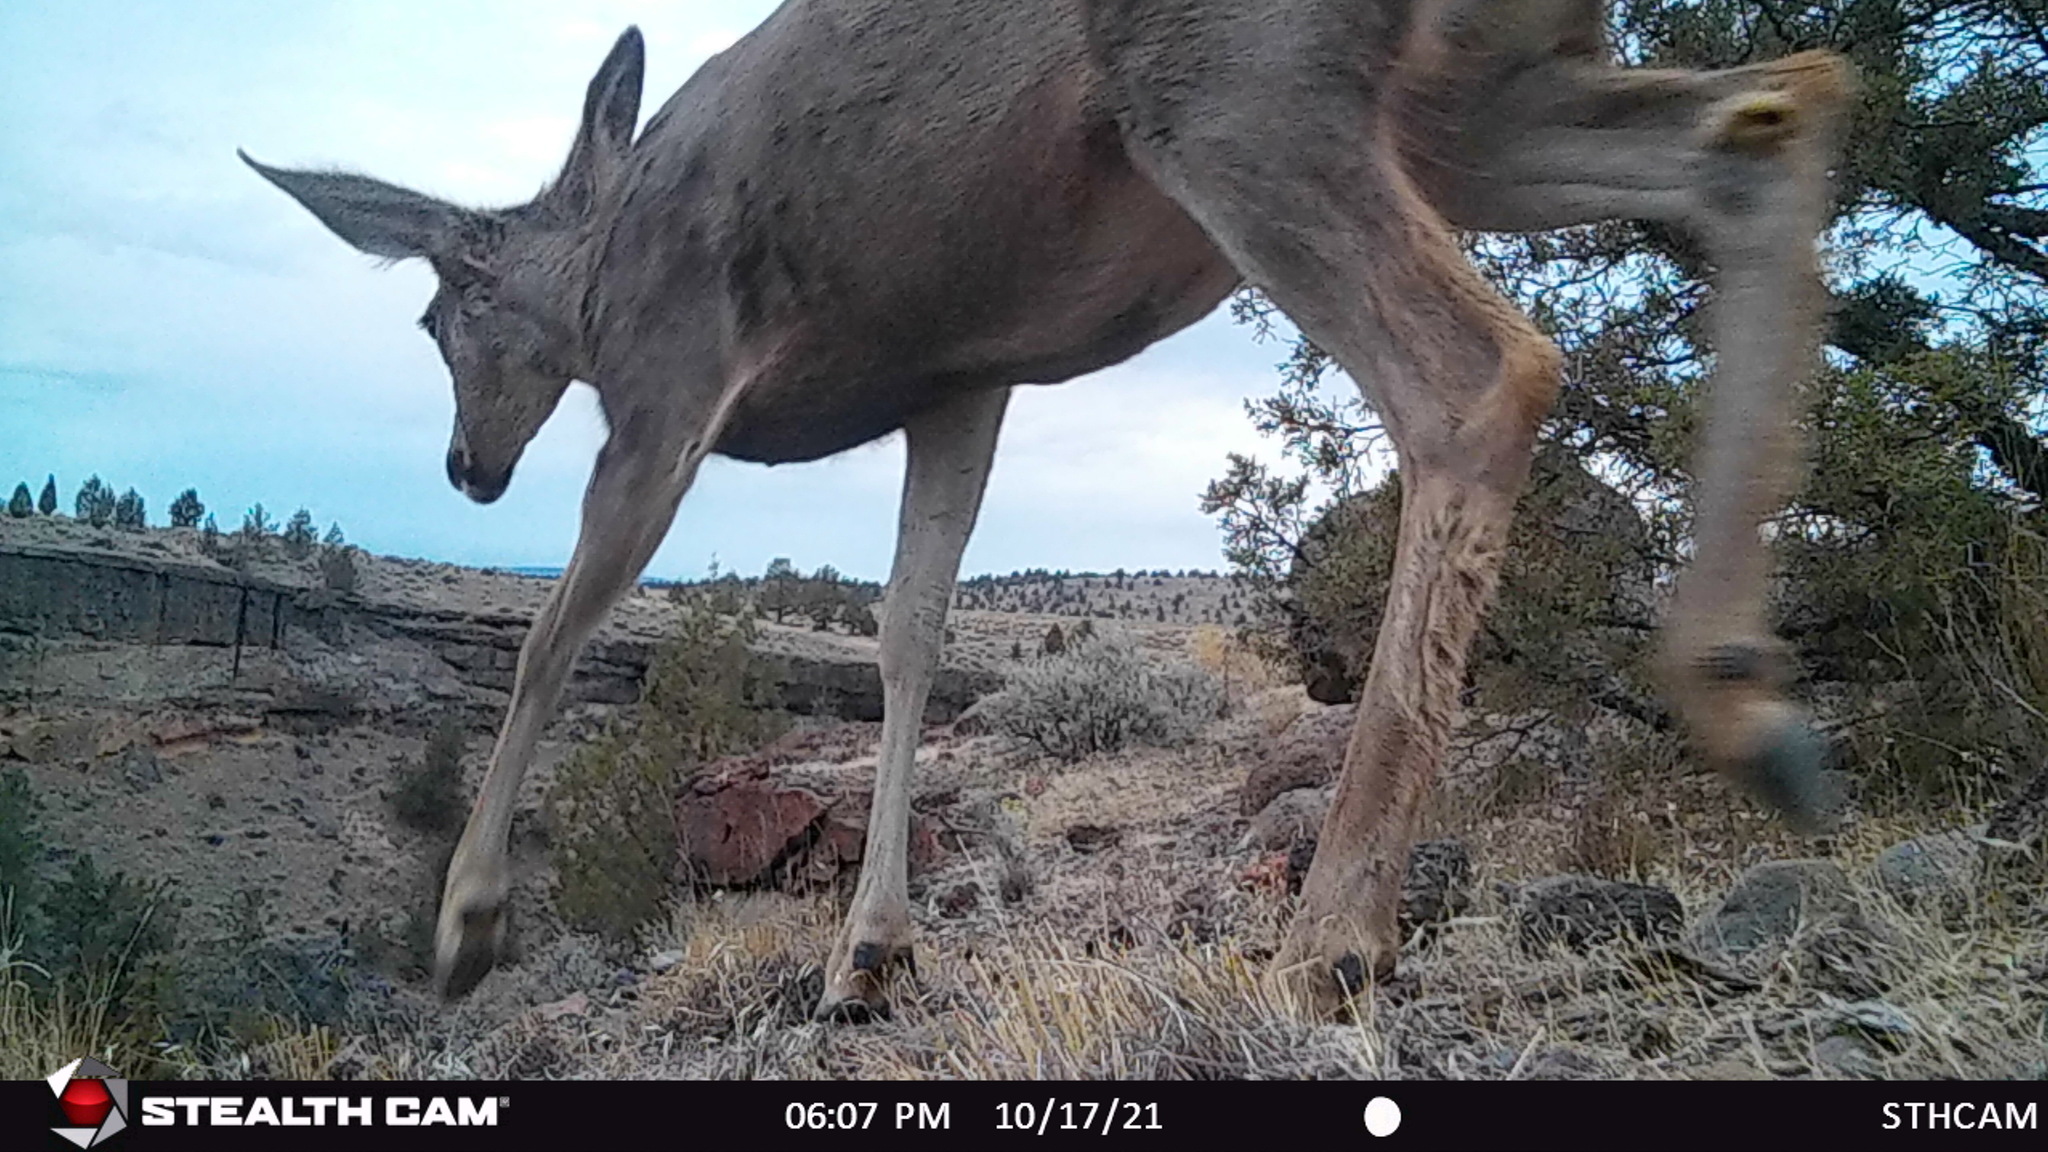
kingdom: Animalia
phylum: Chordata
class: Mammalia
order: Artiodactyla
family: Cervidae
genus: Odocoileus
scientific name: Odocoileus hemionus
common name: Mule deer
